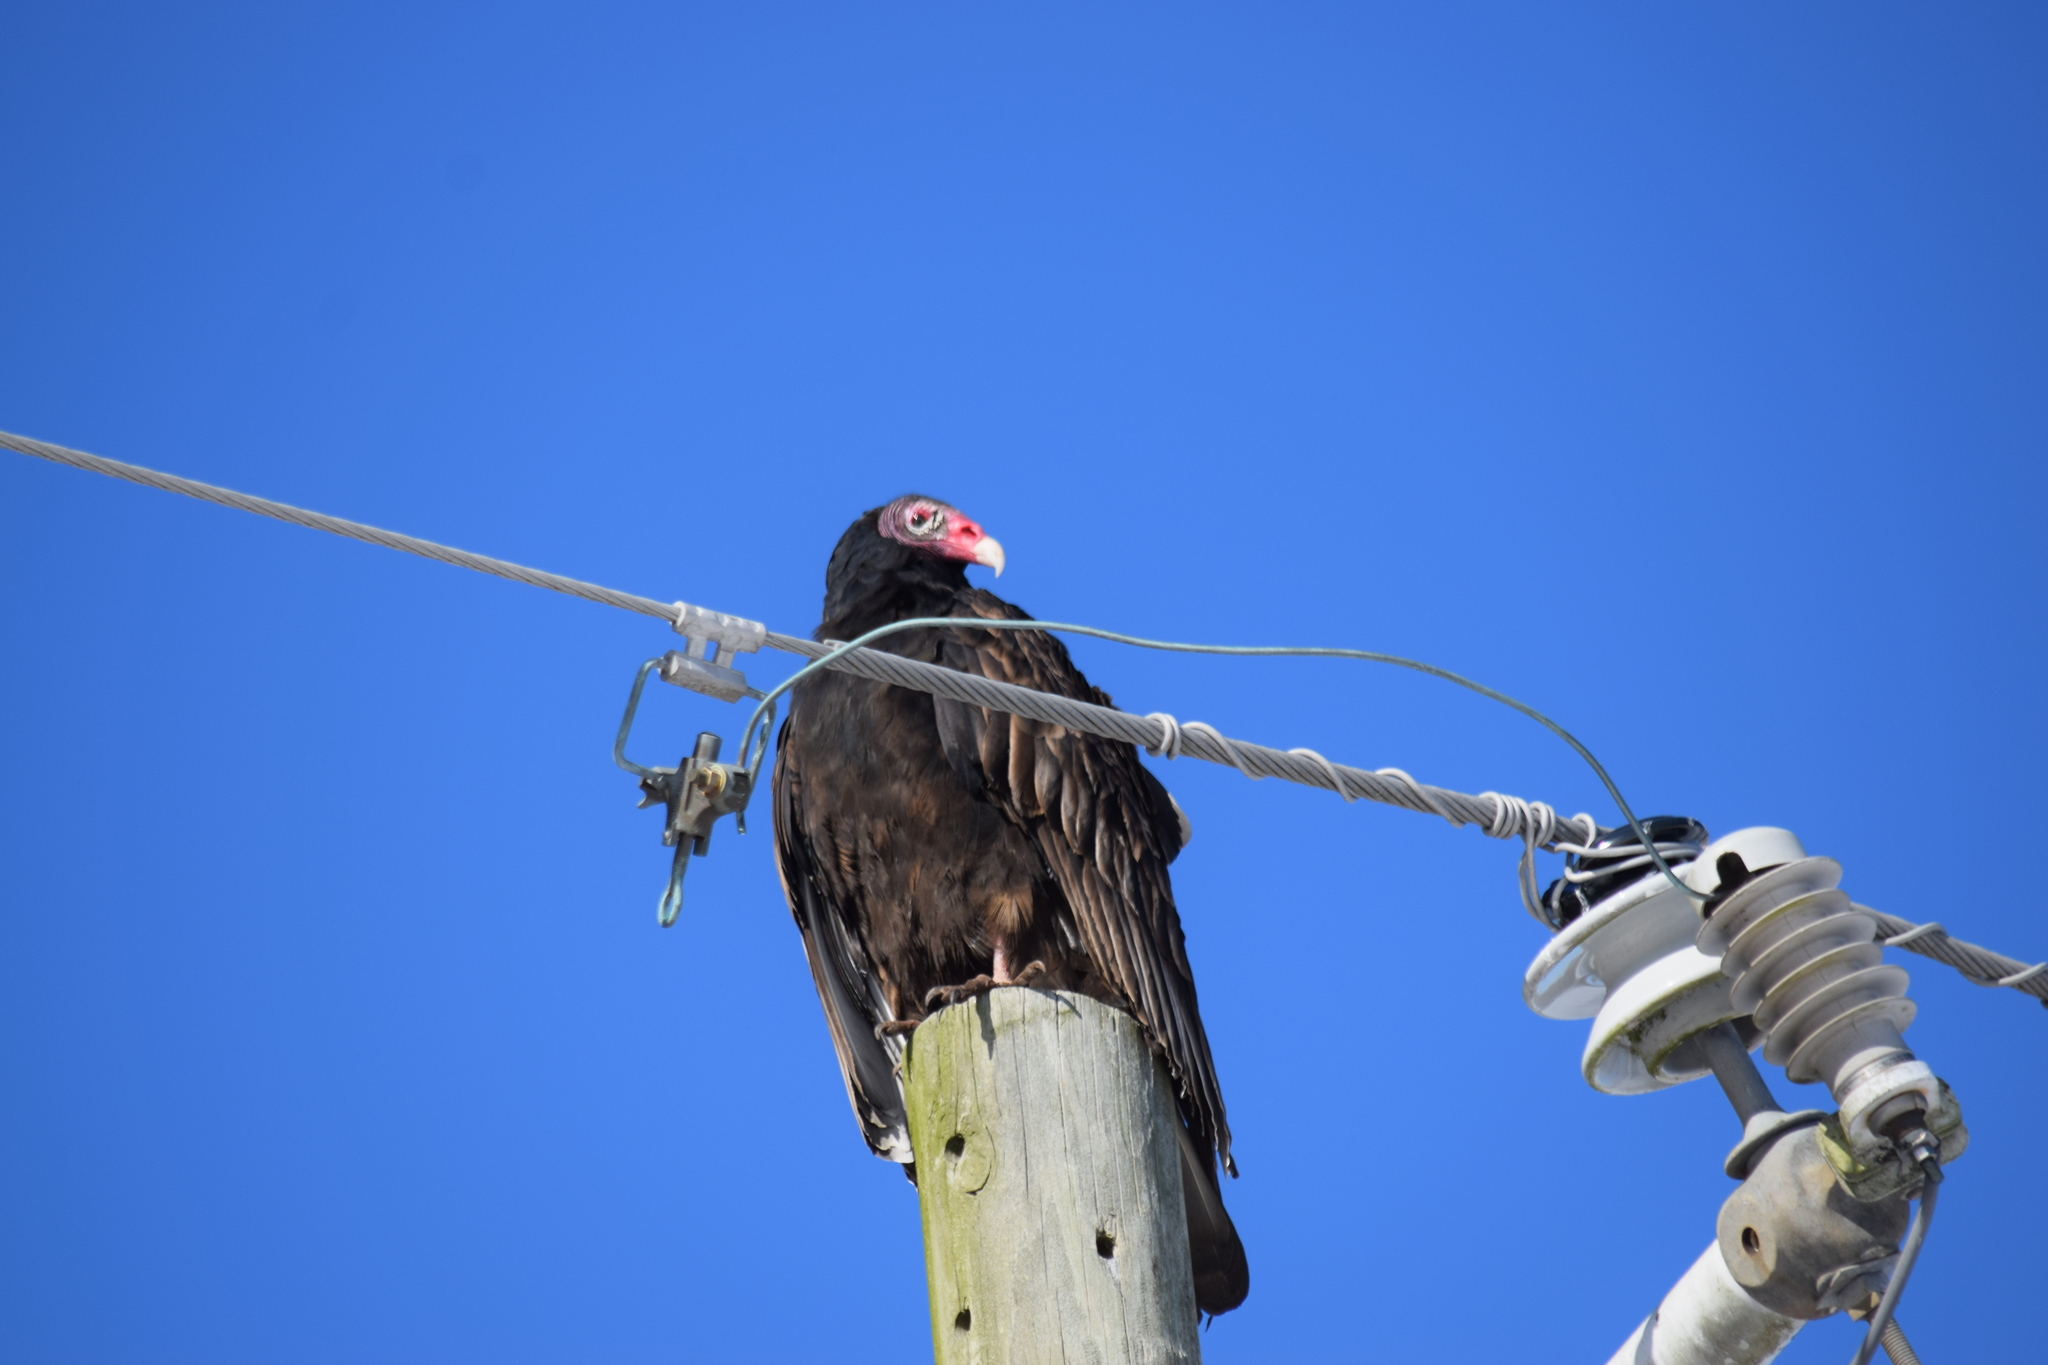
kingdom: Animalia
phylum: Chordata
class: Aves
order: Accipitriformes
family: Cathartidae
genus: Cathartes
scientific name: Cathartes aura
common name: Turkey vulture
